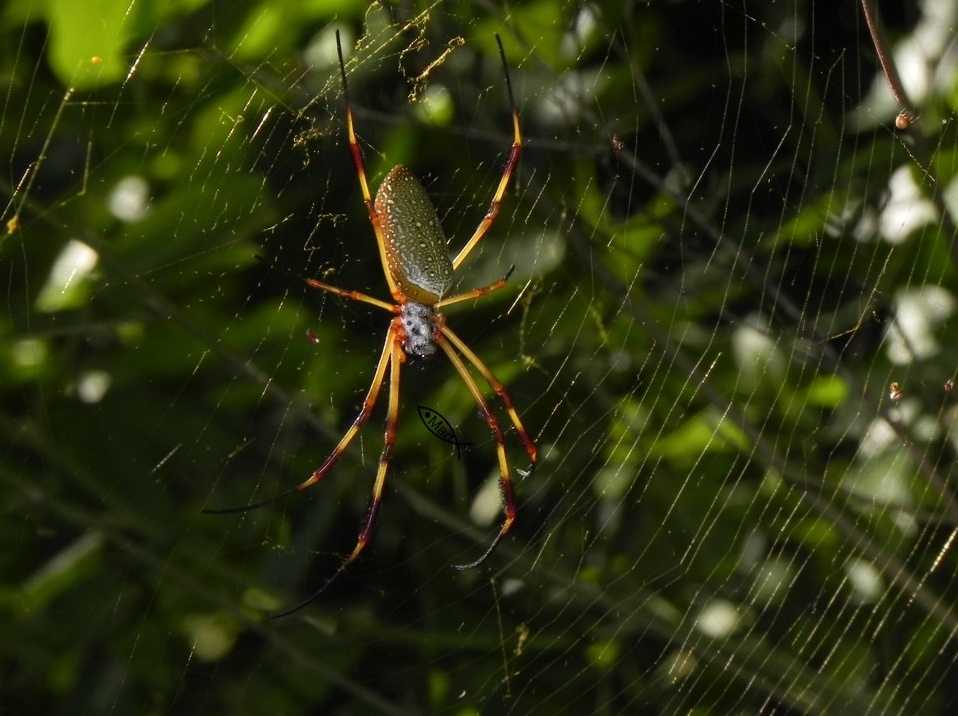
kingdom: Animalia
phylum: Arthropoda
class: Arachnida
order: Araneae
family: Araneidae
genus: Trichonephila
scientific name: Trichonephila clavipes
